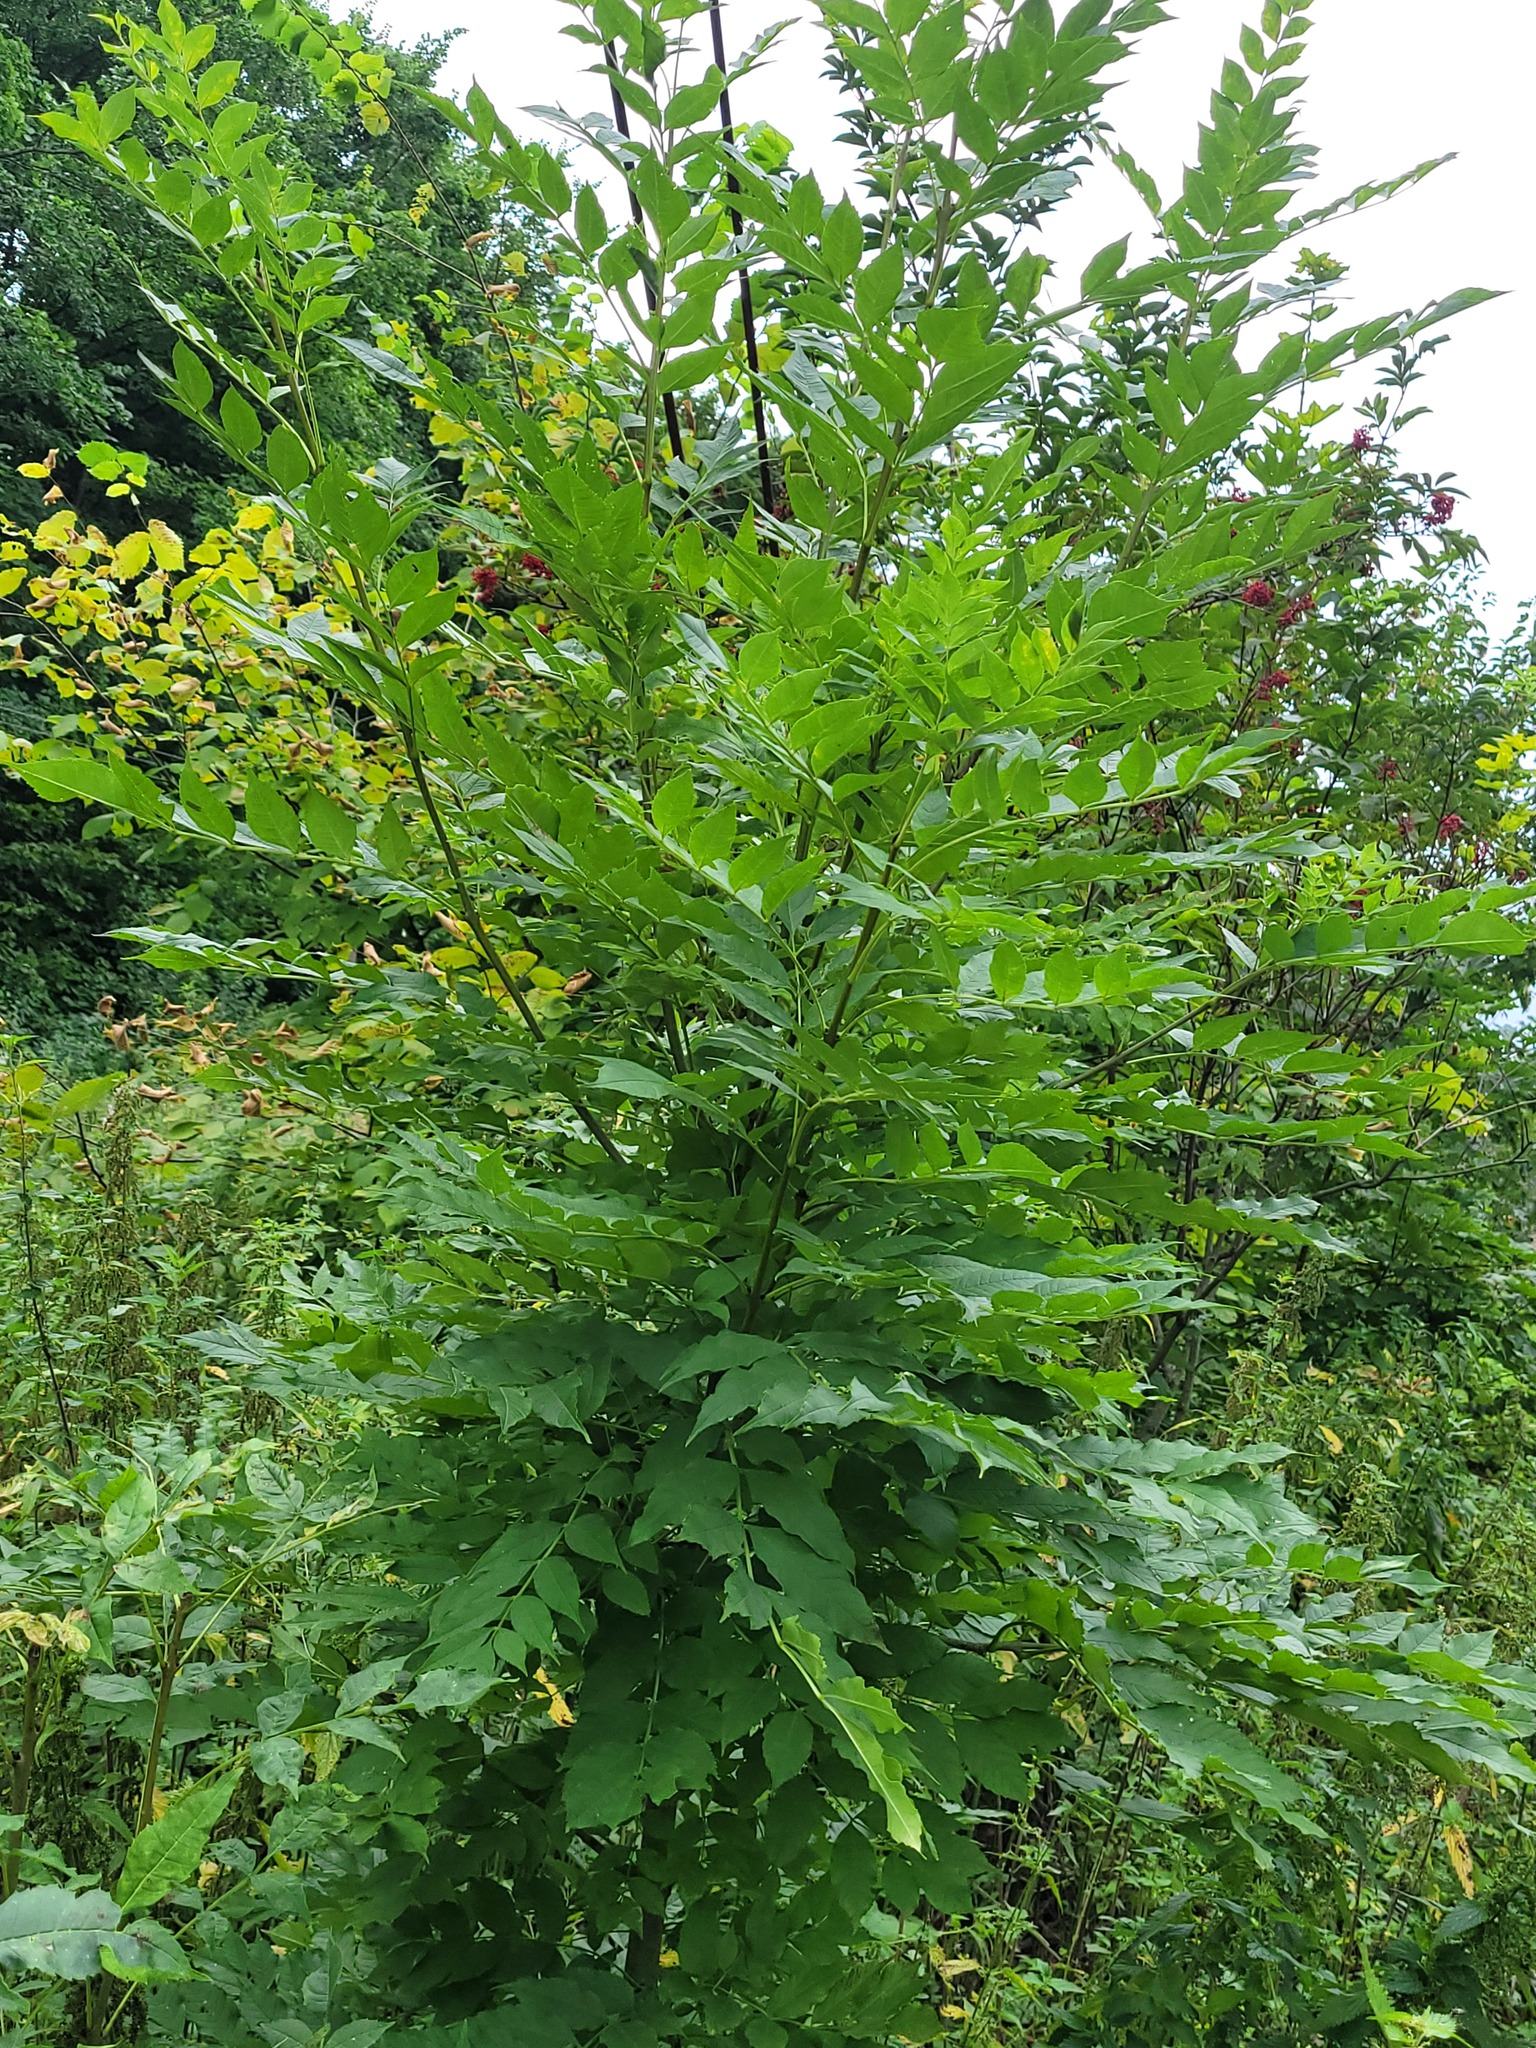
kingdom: Plantae
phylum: Tracheophyta
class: Magnoliopsida
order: Lamiales
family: Oleaceae
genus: Fraxinus
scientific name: Fraxinus excelsior
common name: European ash
